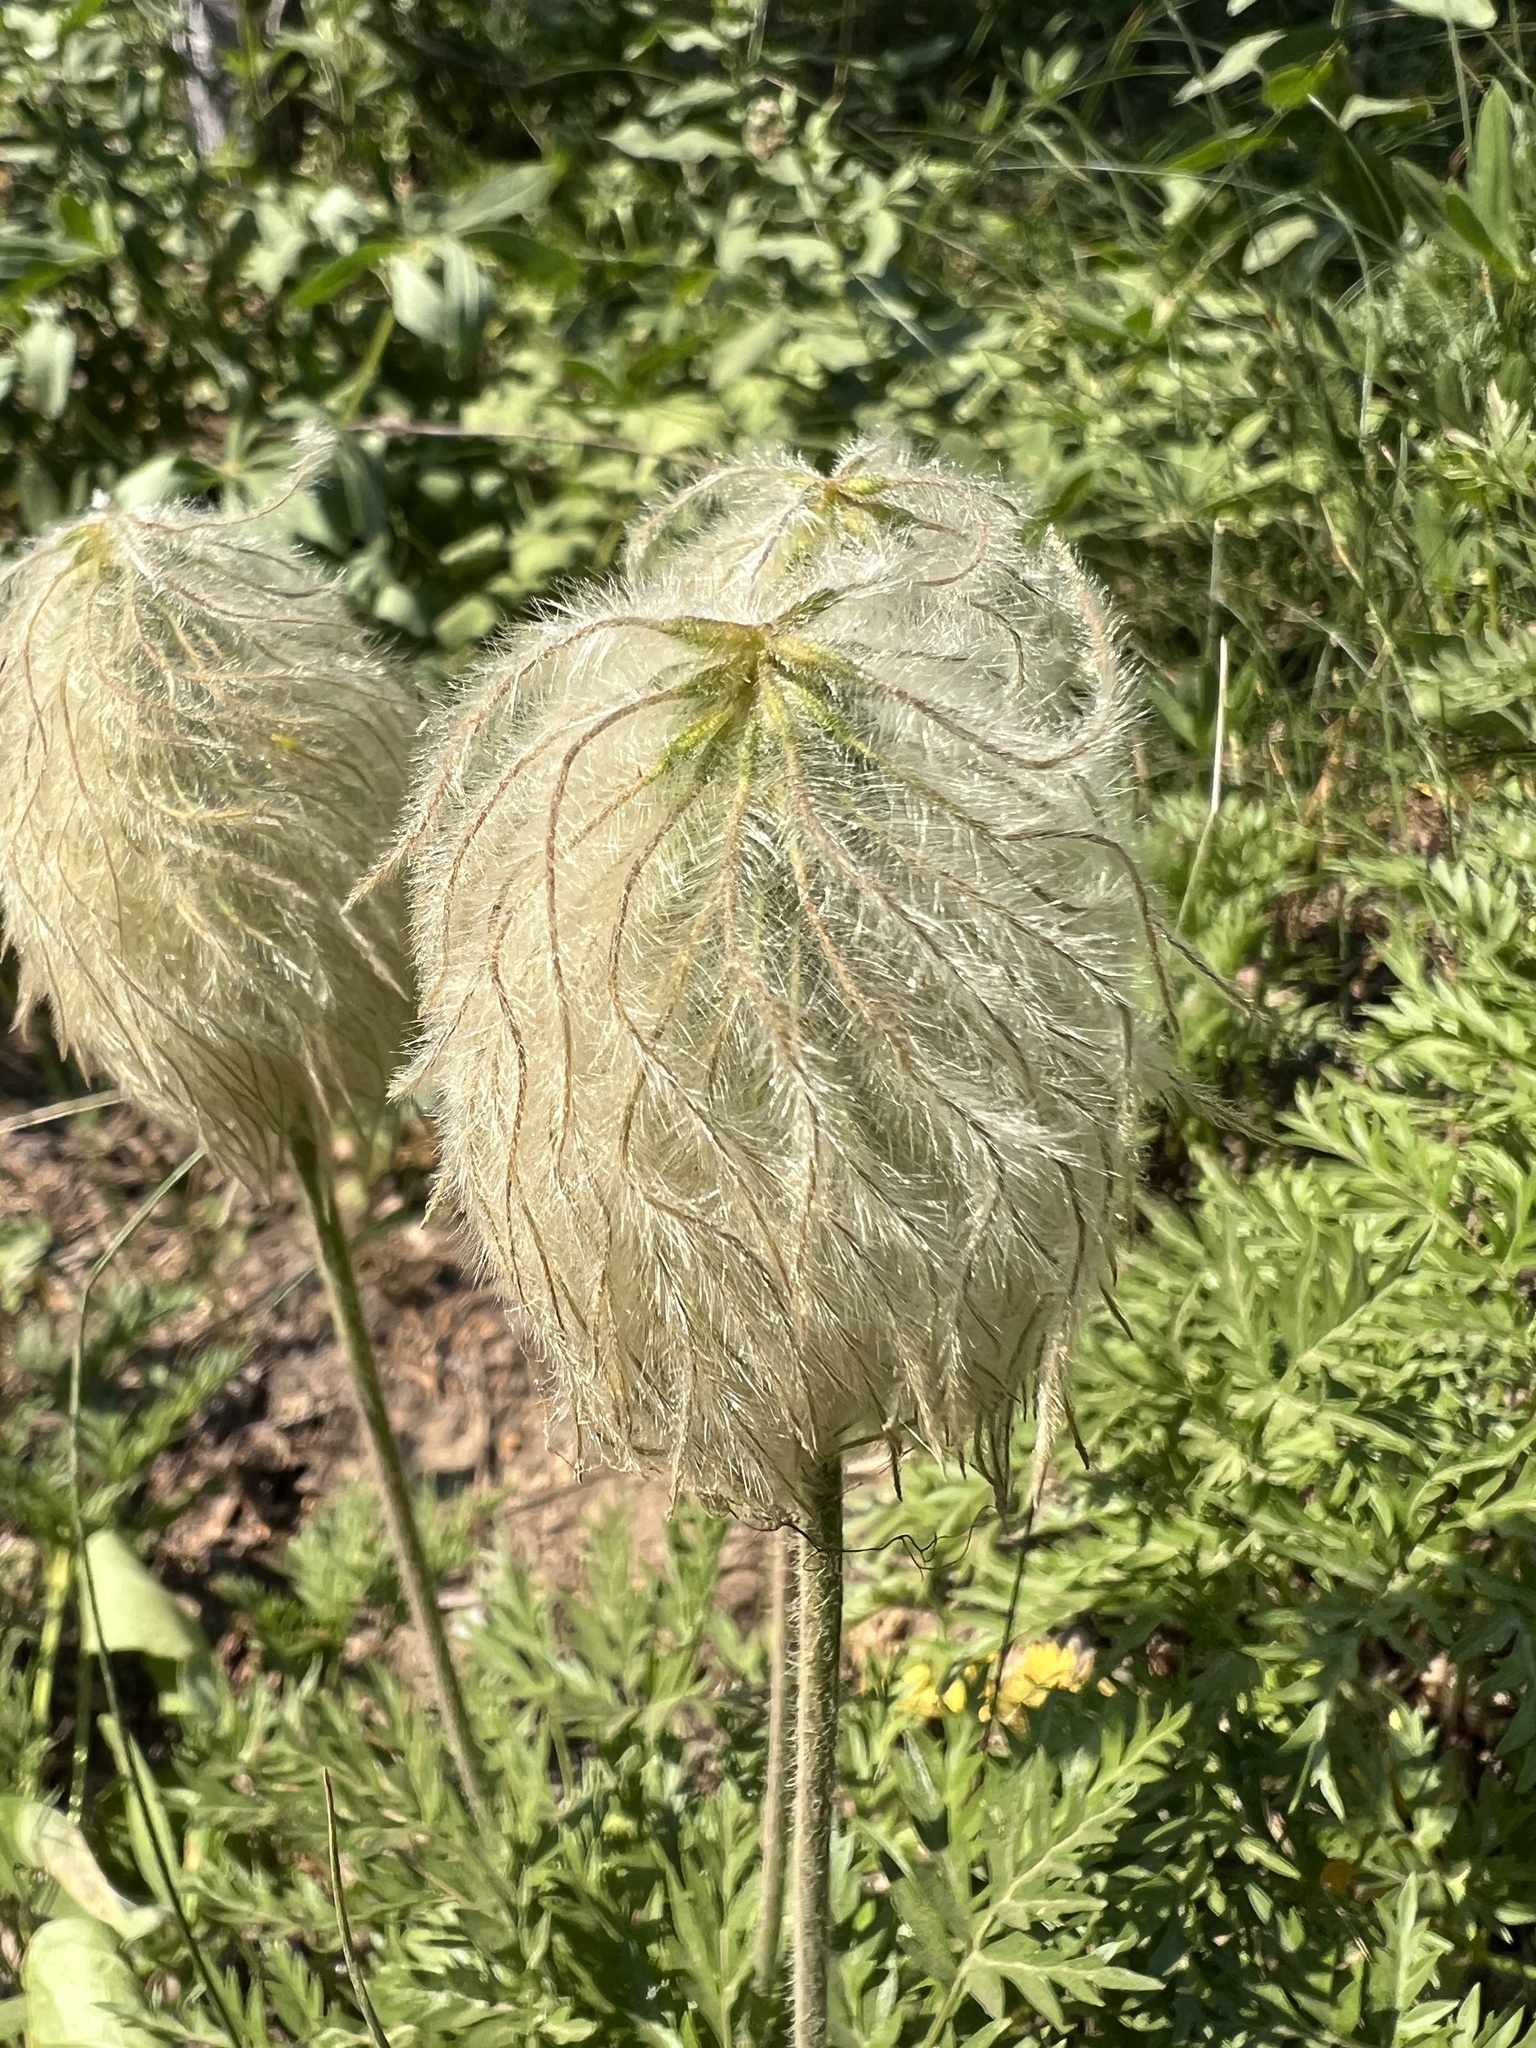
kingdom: Plantae
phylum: Tracheophyta
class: Magnoliopsida
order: Ranunculales
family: Ranunculaceae
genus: Pulsatilla
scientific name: Pulsatilla occidentalis
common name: Mountain pasqueflower
